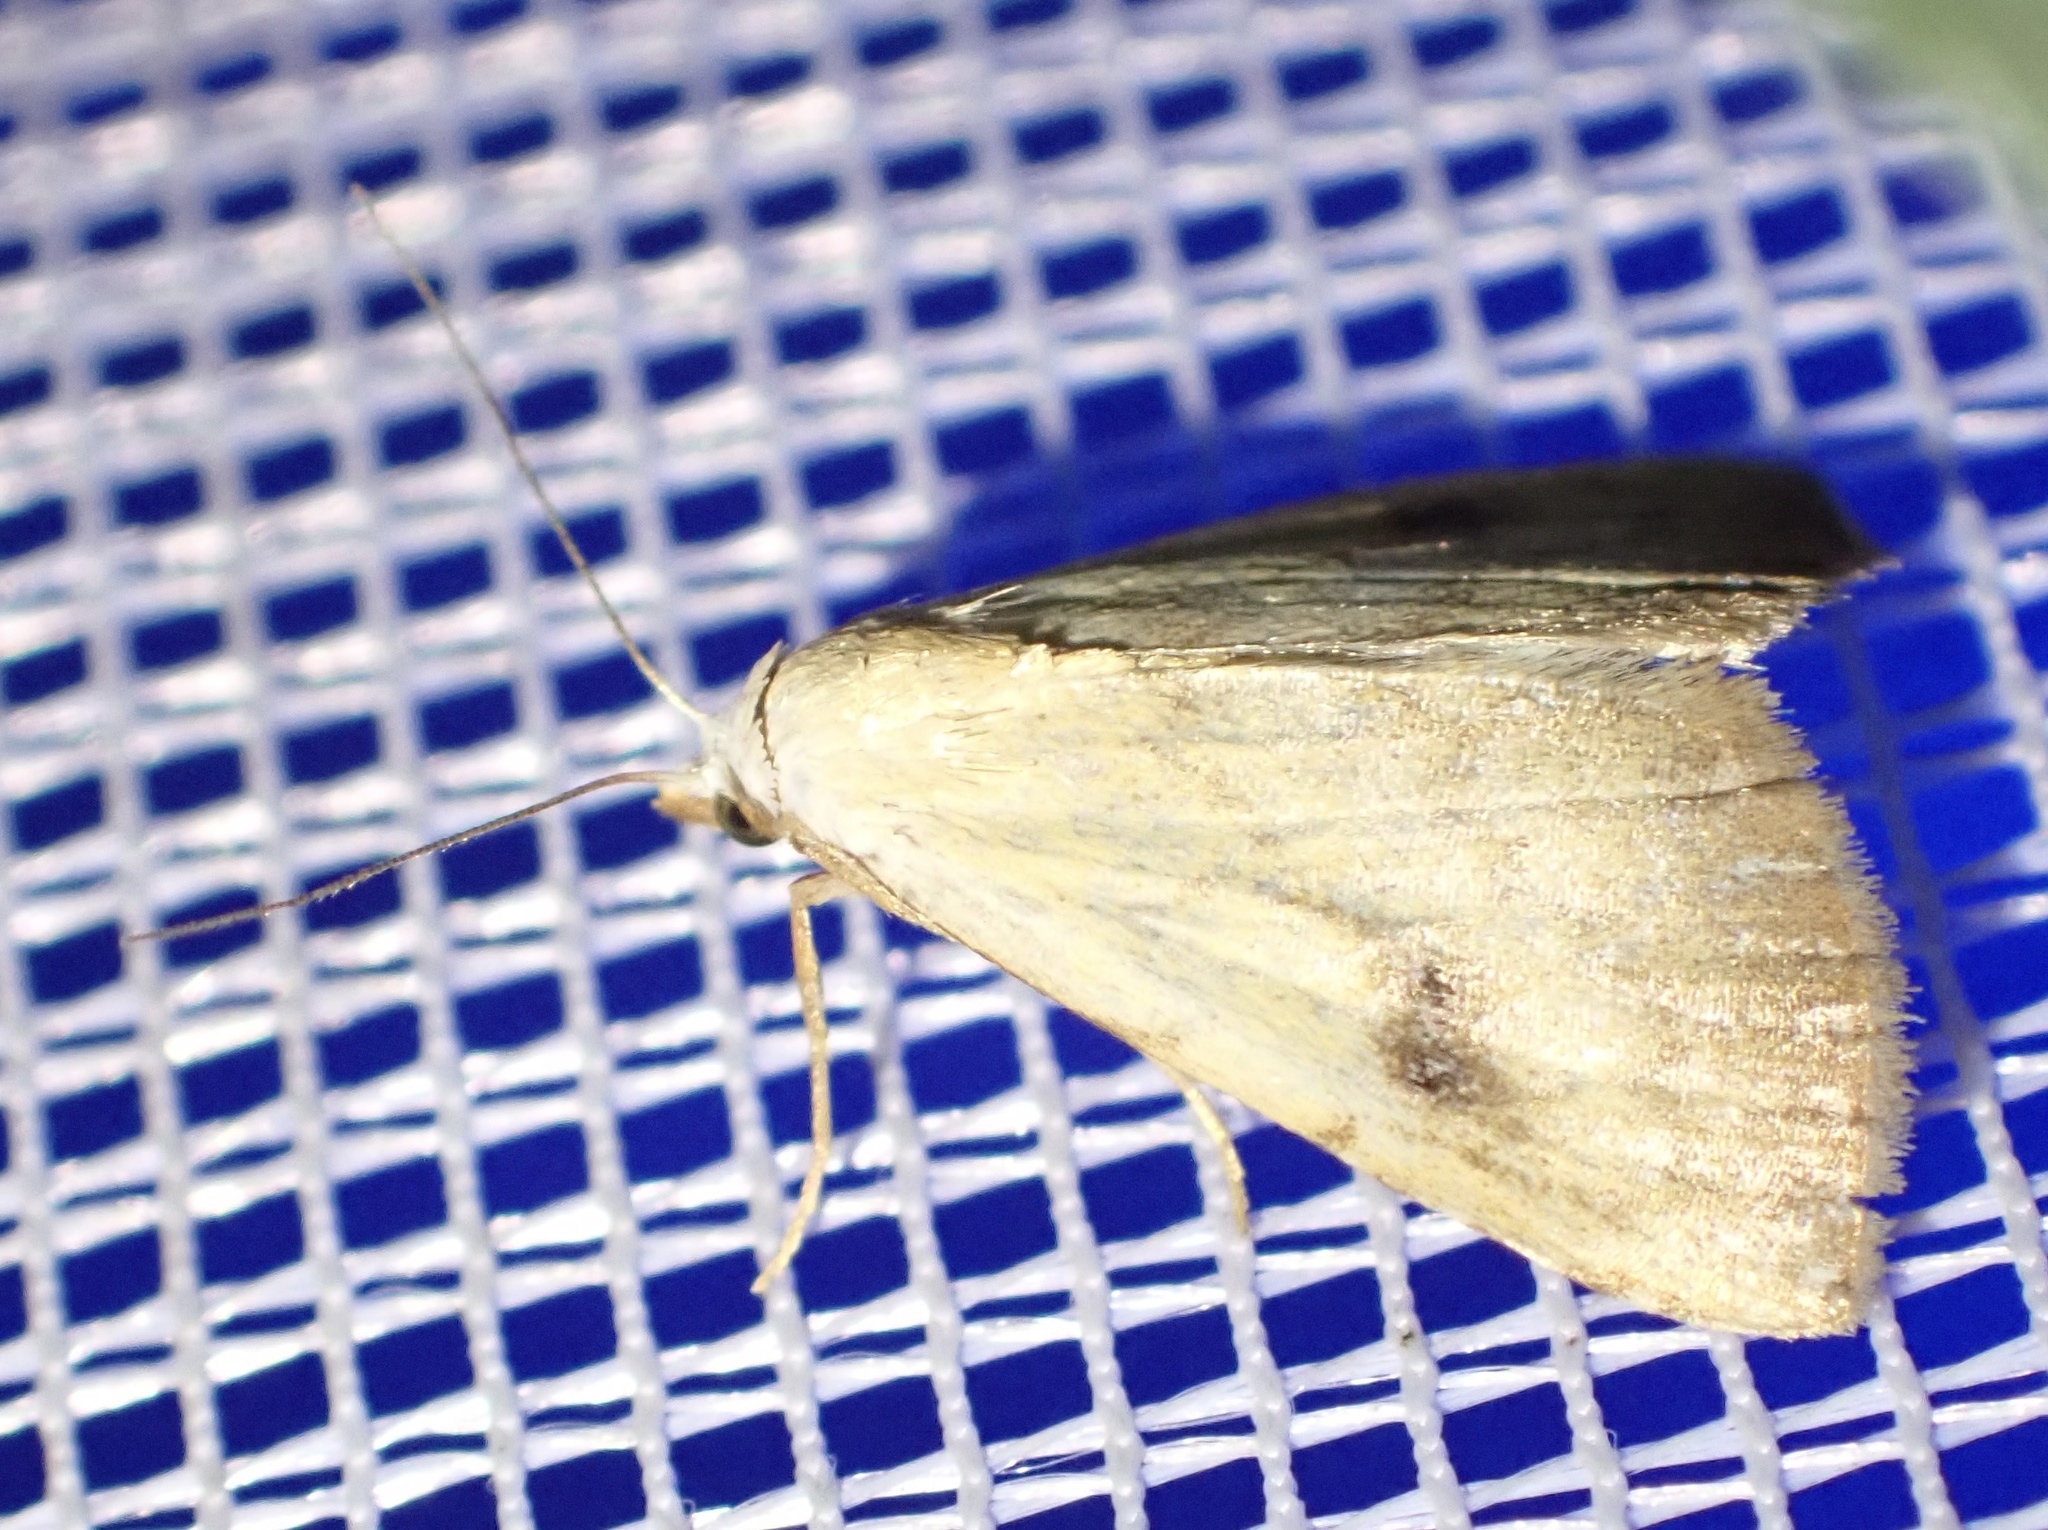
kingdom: Animalia
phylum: Arthropoda
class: Insecta
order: Lepidoptera
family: Erebidae
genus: Rivula
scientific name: Rivula sericealis
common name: Straw dot
